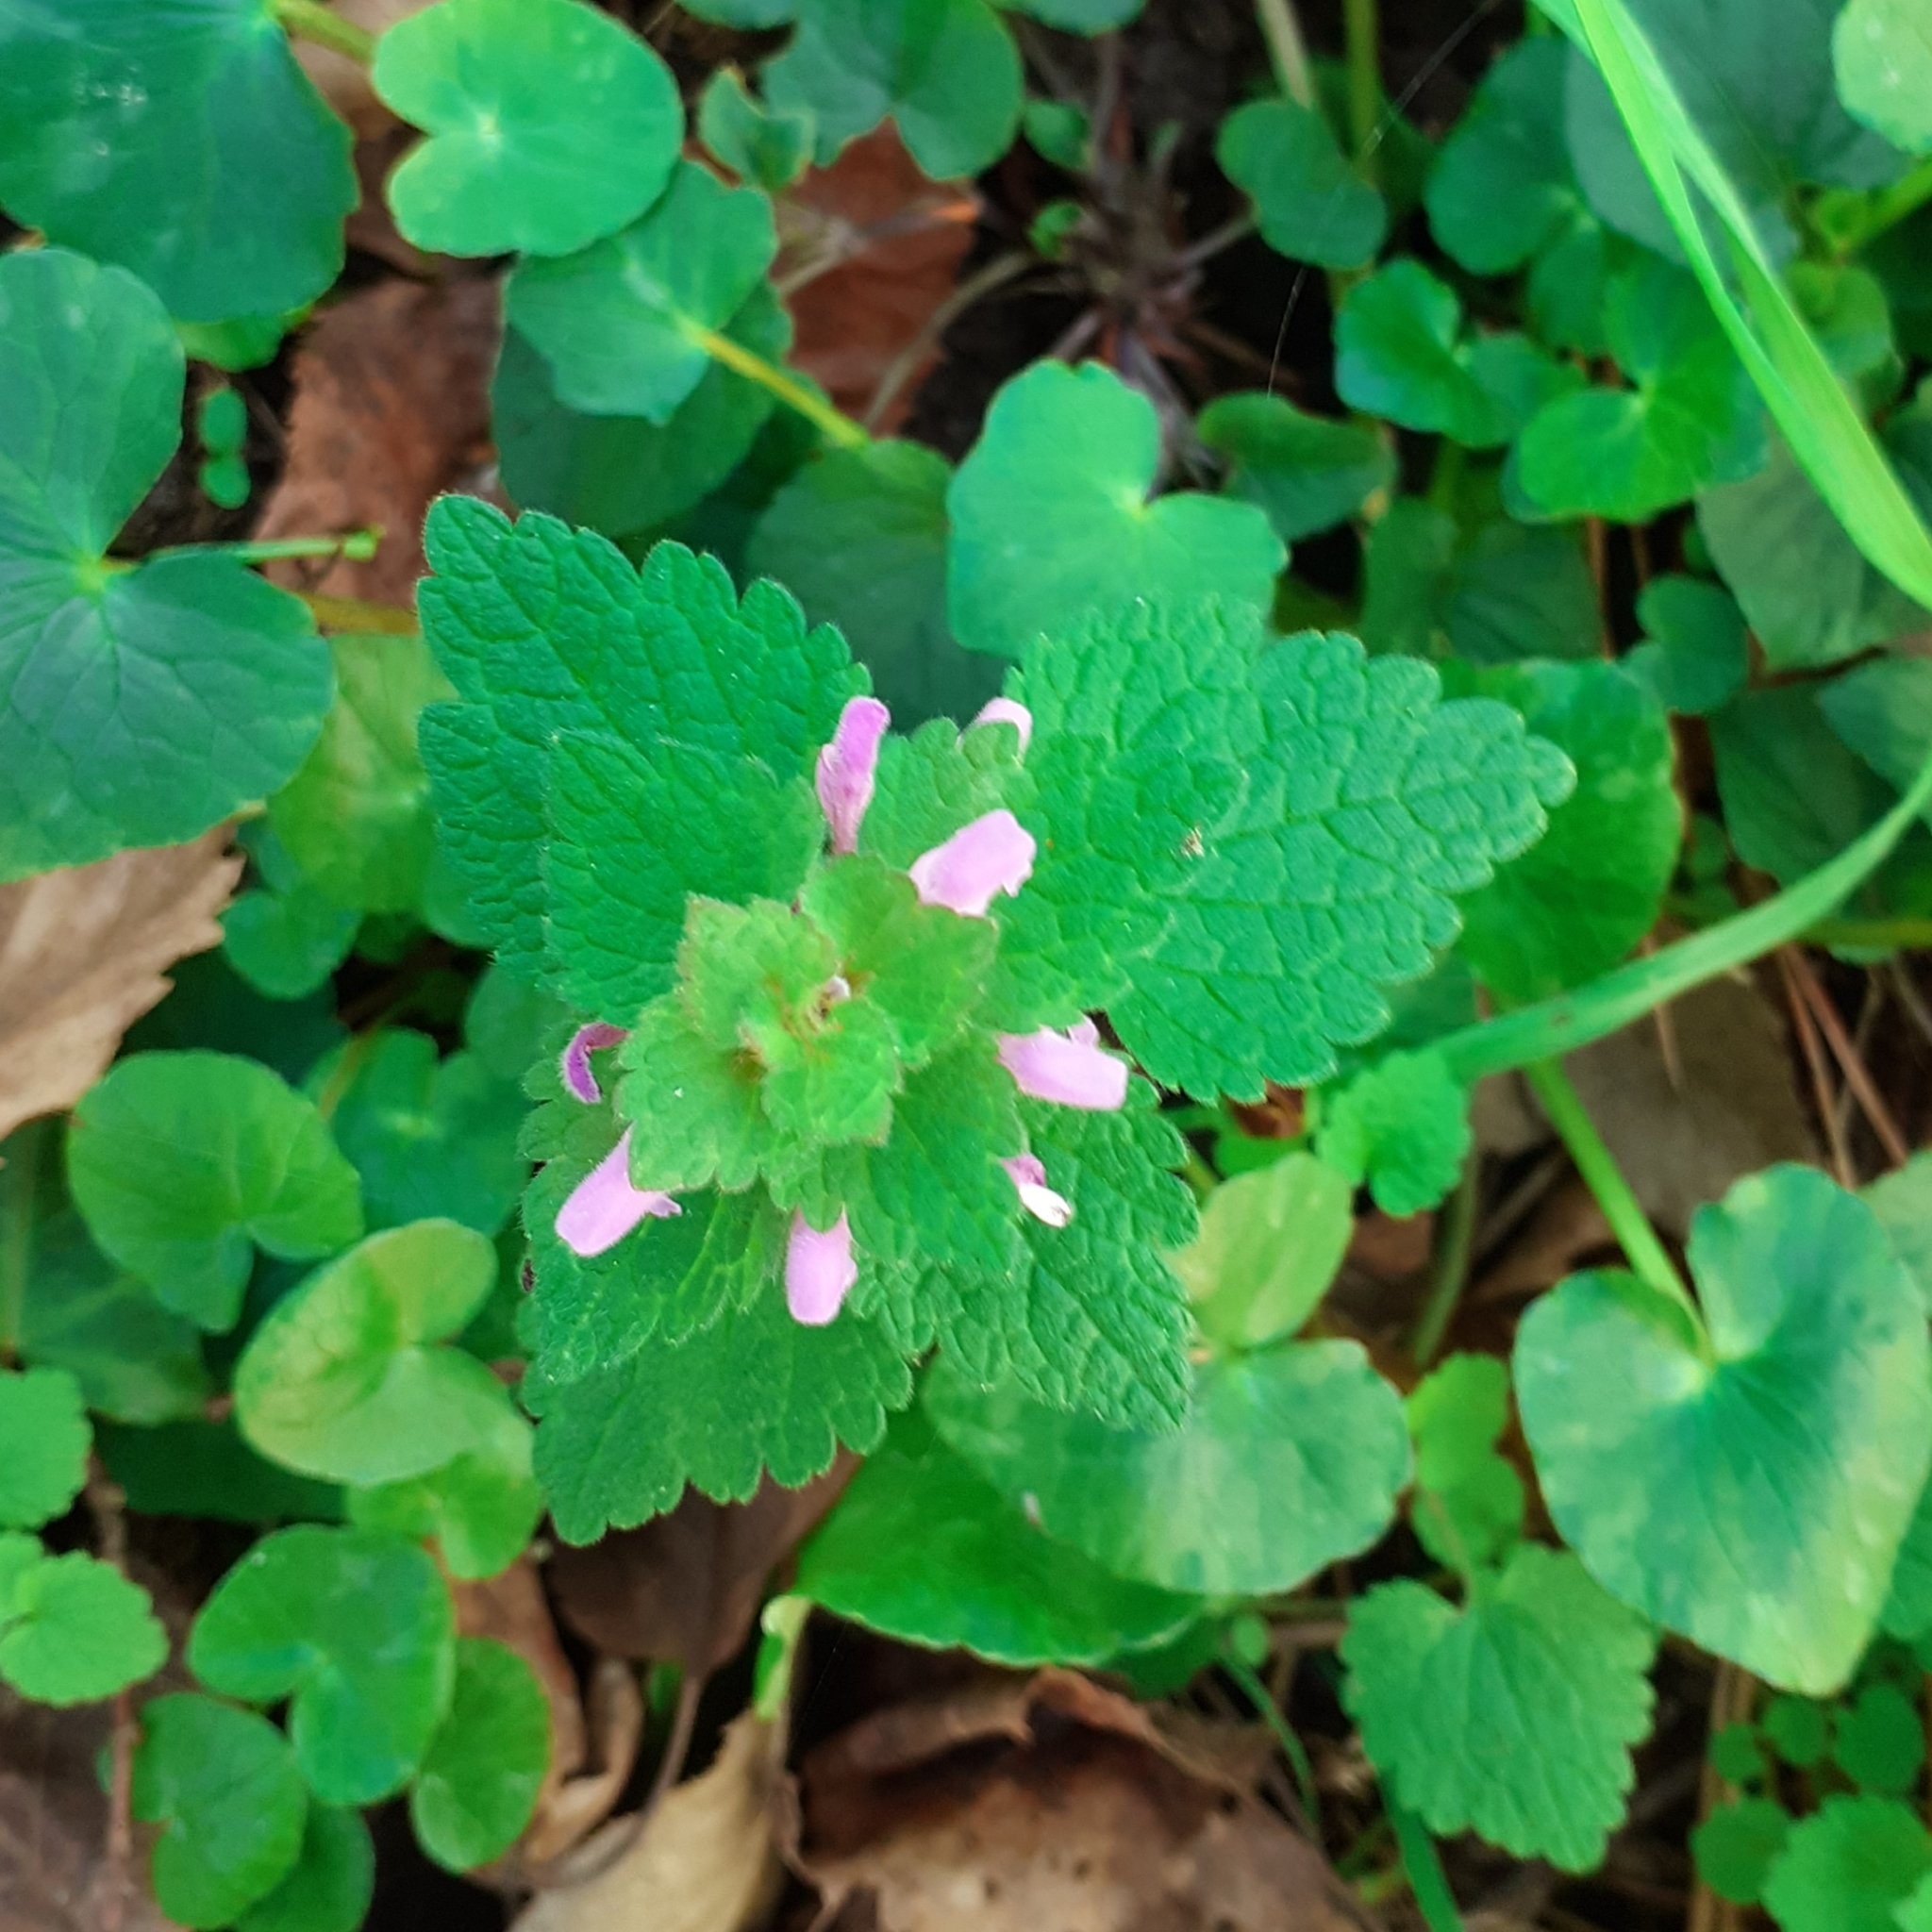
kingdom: Plantae
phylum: Tracheophyta
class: Magnoliopsida
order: Lamiales
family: Lamiaceae
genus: Lamium
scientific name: Lamium purpureum
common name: Red dead-nettle
